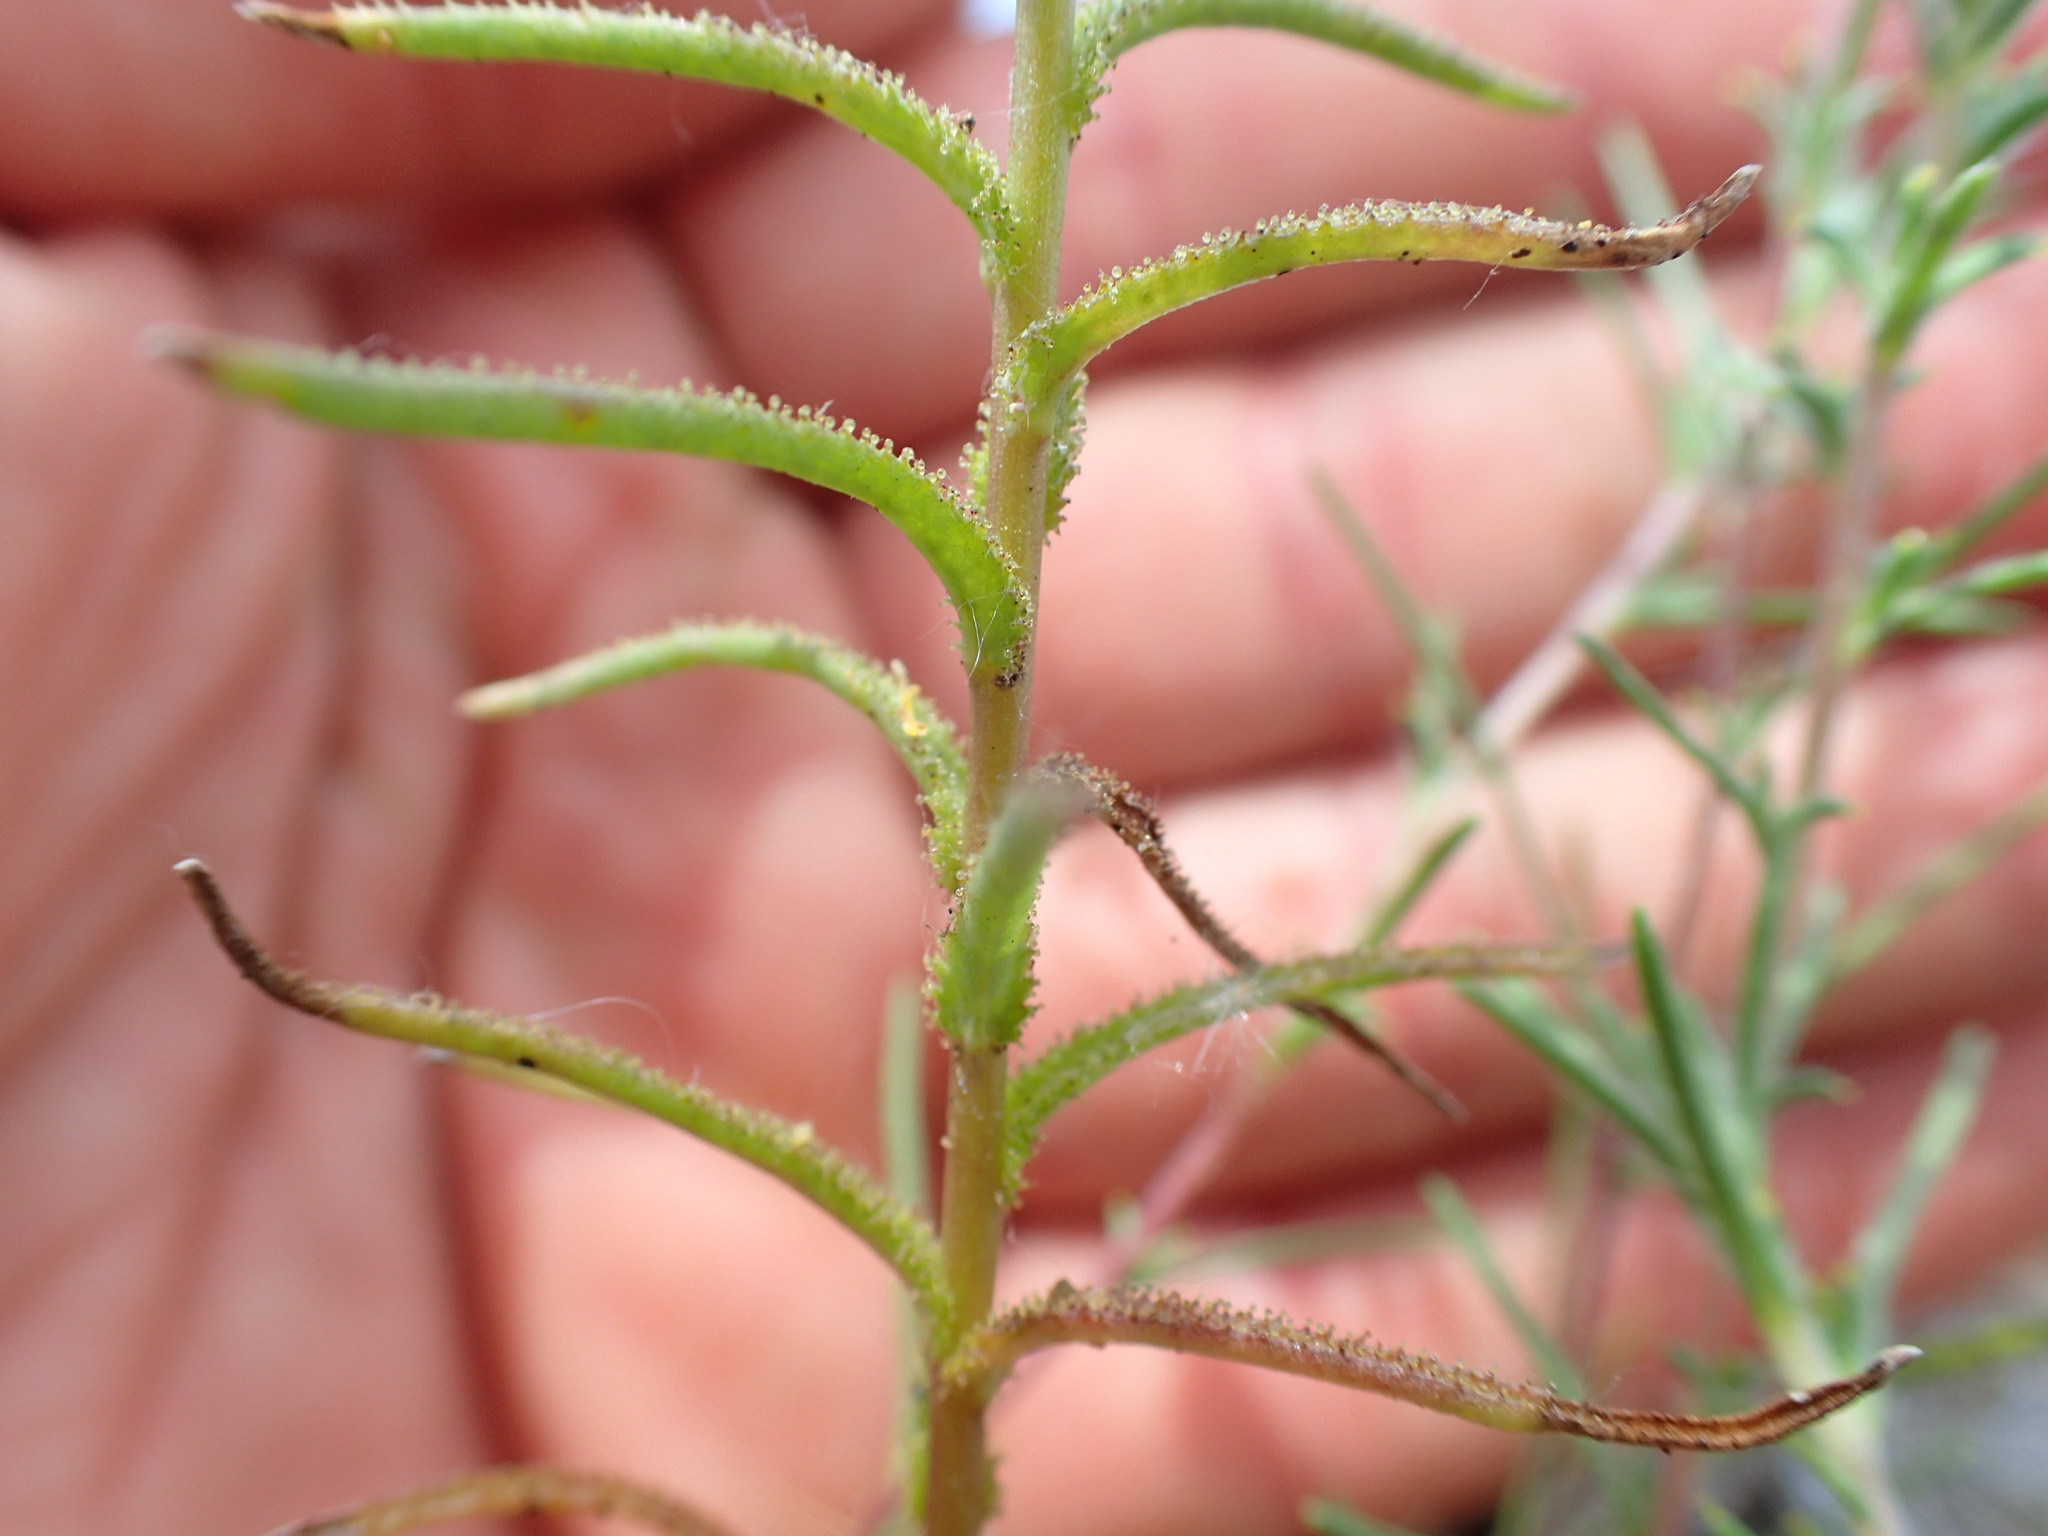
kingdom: Plantae
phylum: Tracheophyta
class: Magnoliopsida
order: Malpighiales
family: Linaceae
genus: Hesperolinon
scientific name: Hesperolinon adenophyllum
